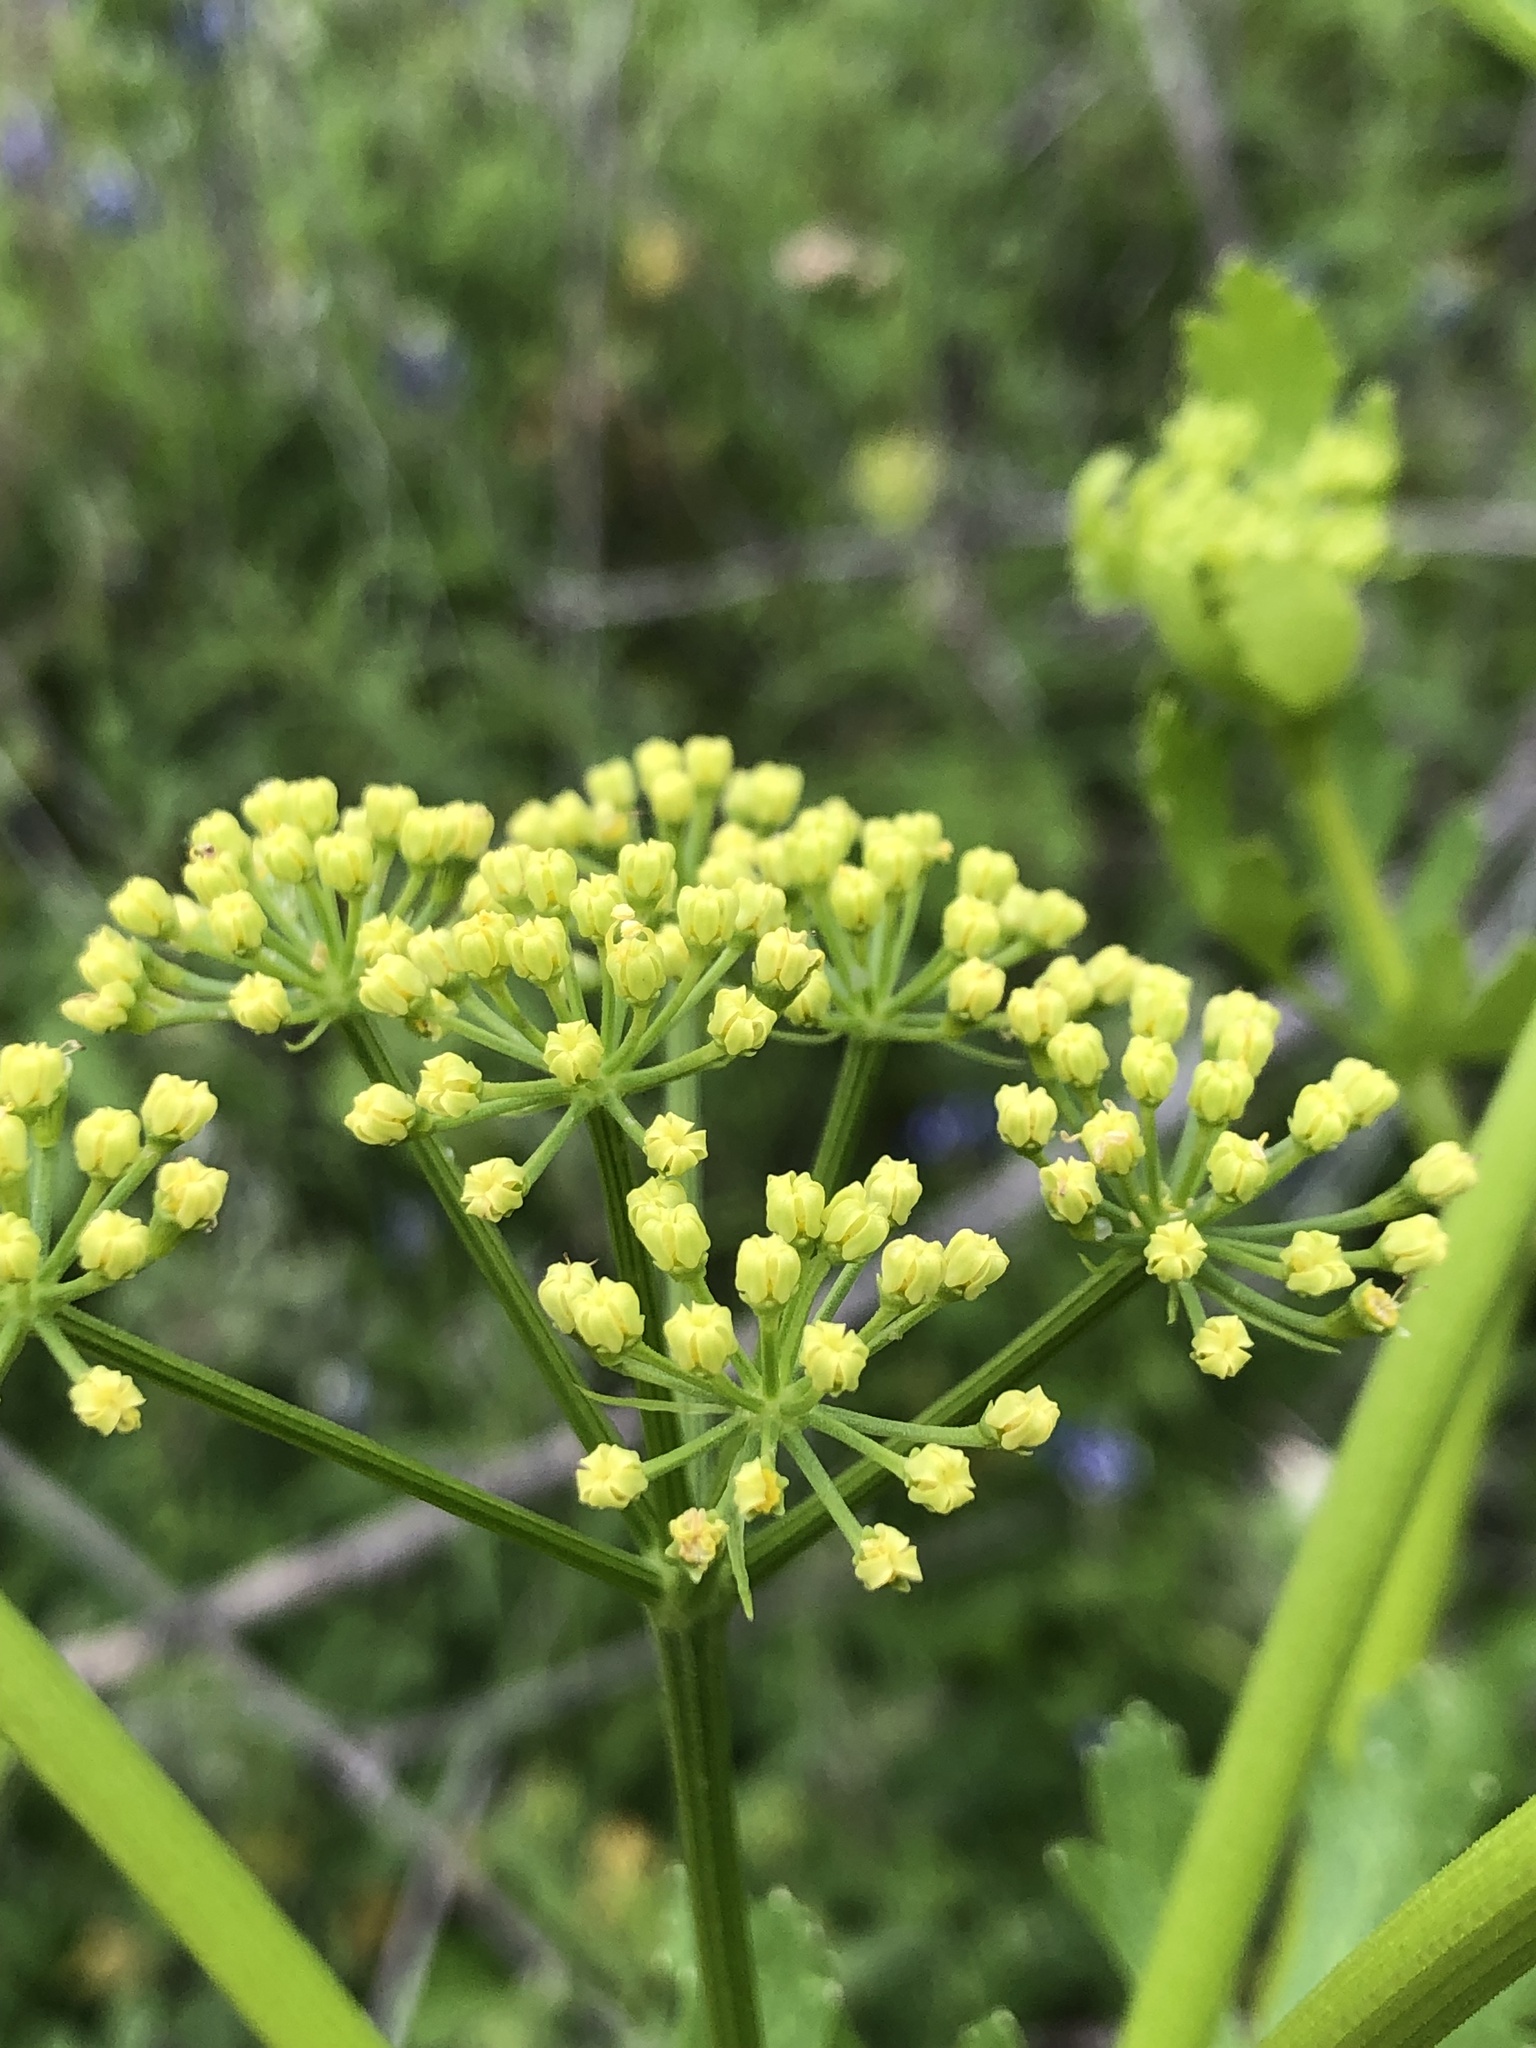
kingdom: Plantae
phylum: Tracheophyta
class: Magnoliopsida
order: Apiales
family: Apiaceae
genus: Polytaenia
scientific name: Polytaenia texana
